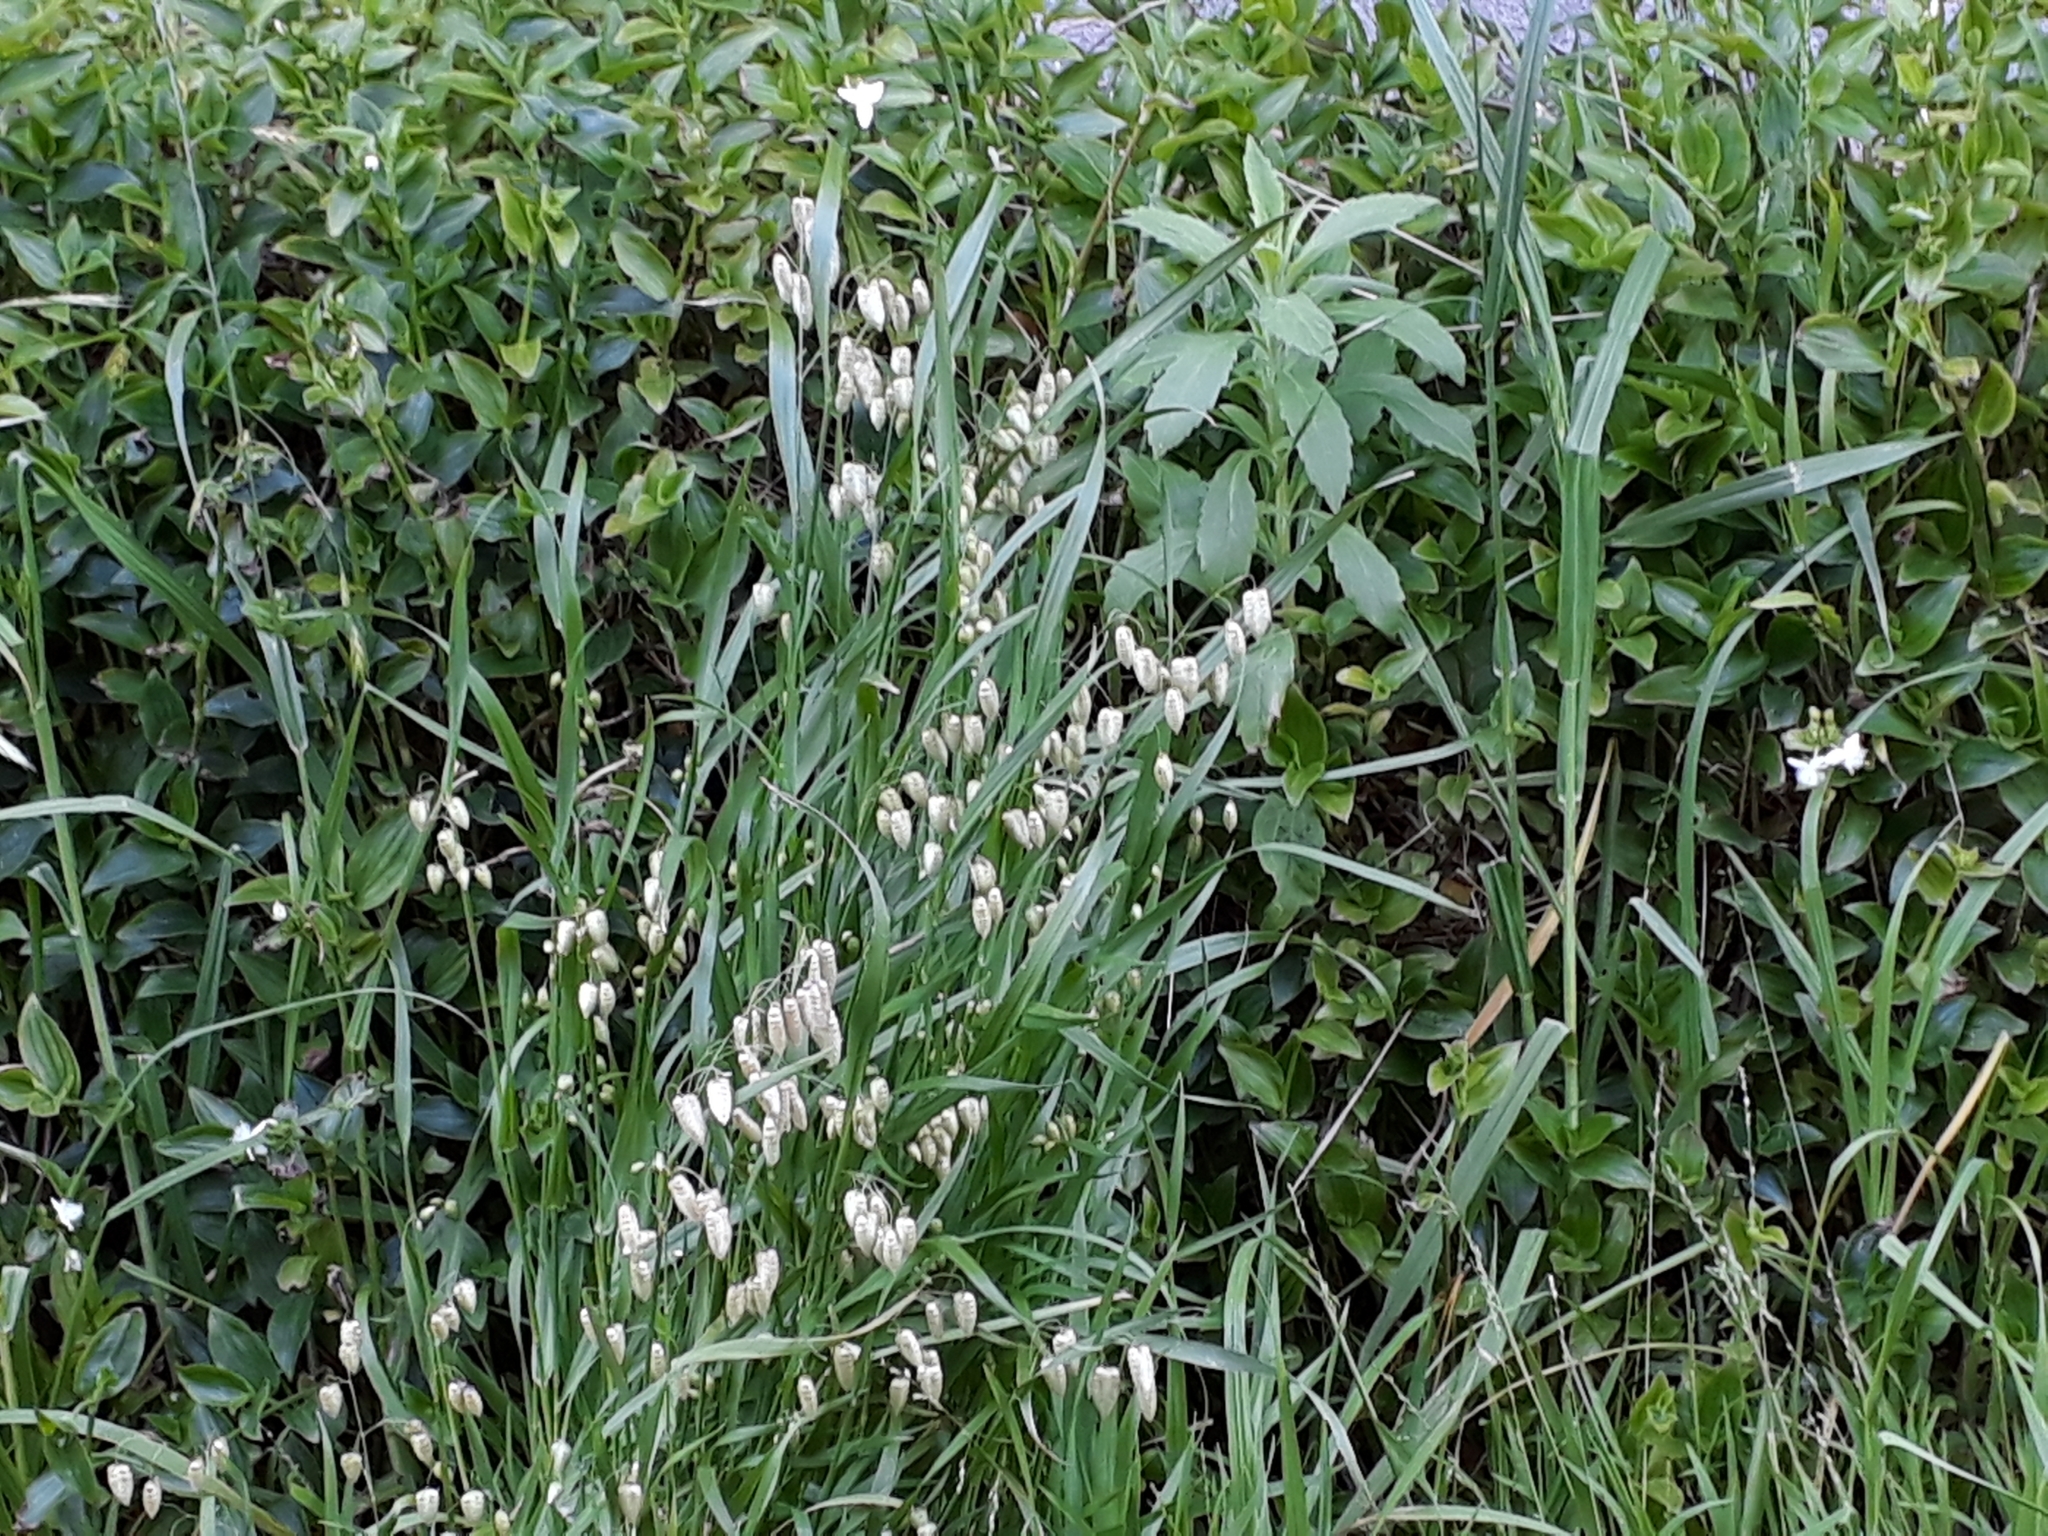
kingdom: Plantae
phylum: Tracheophyta
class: Liliopsida
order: Poales
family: Poaceae
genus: Briza
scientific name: Briza maxima
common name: Big quakinggrass
